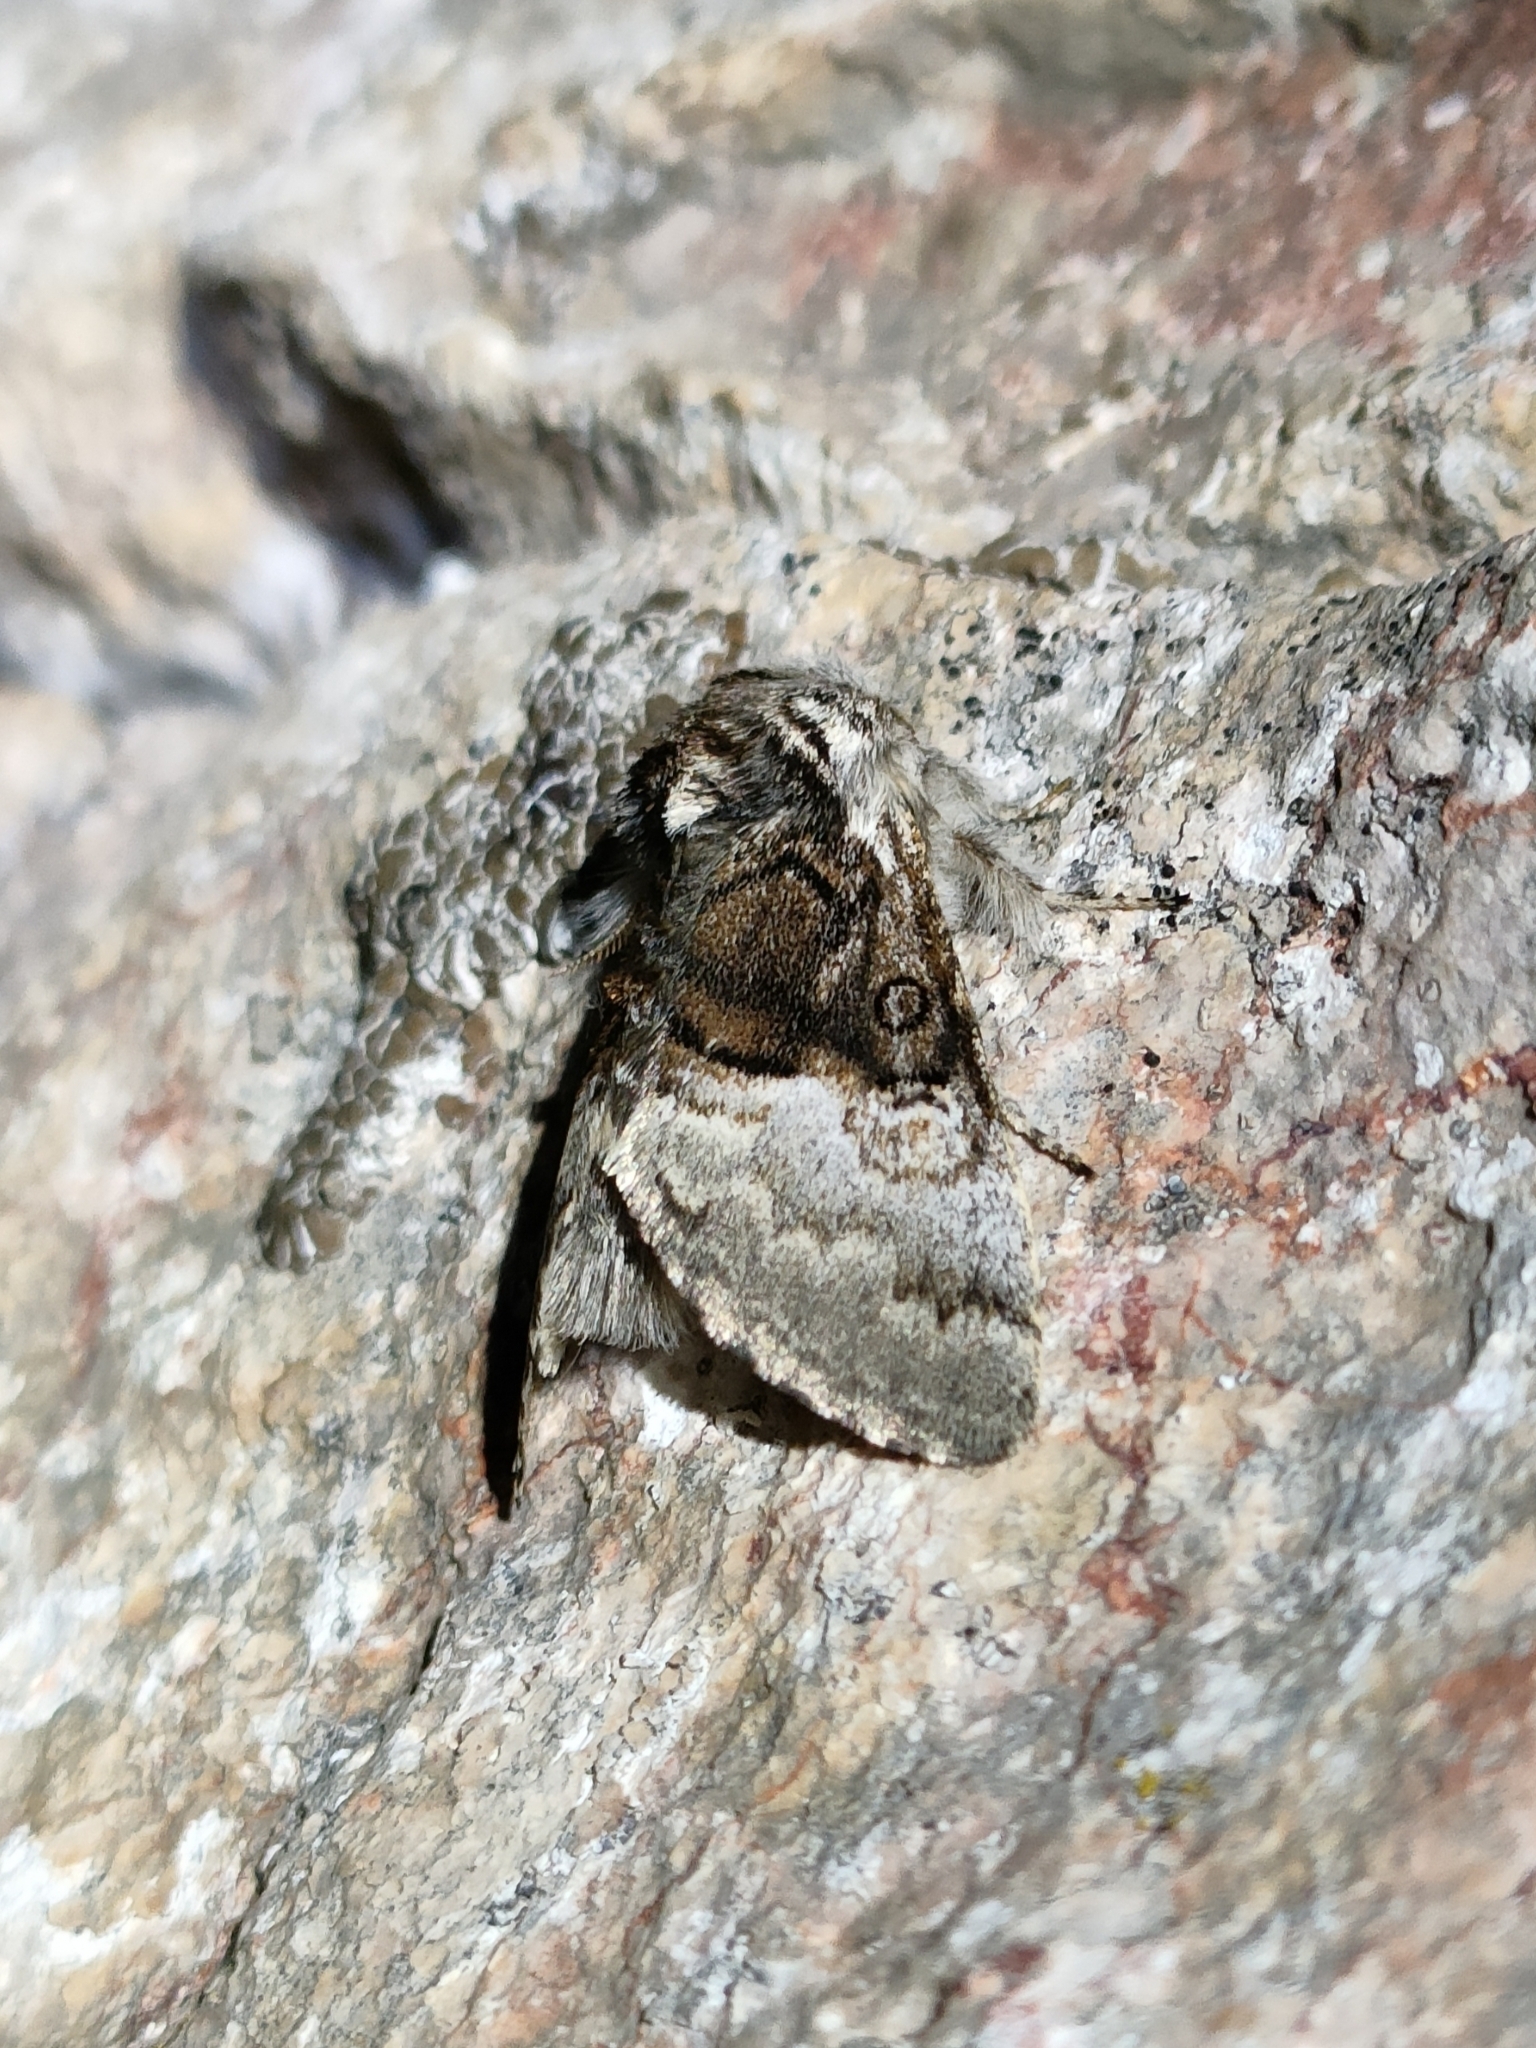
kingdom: Animalia
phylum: Arthropoda
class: Insecta
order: Lepidoptera
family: Noctuidae
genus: Colocasia
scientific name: Colocasia coryli
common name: Nut-tree tussock
